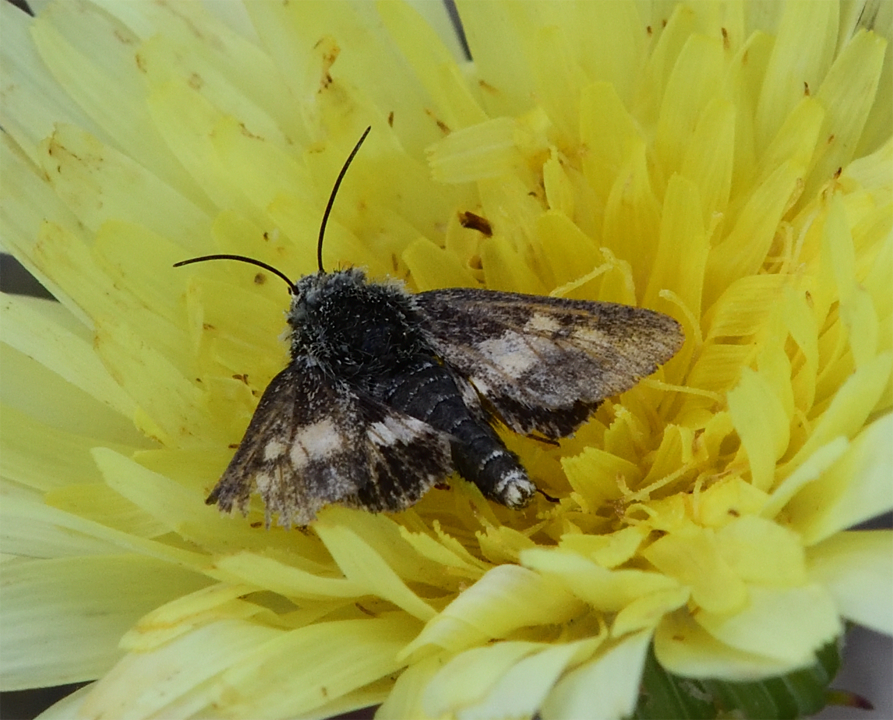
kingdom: Animalia
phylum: Arthropoda
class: Insecta
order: Lepidoptera
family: Noctuidae
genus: Heliothodes
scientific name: Heliothodes diminutiva
